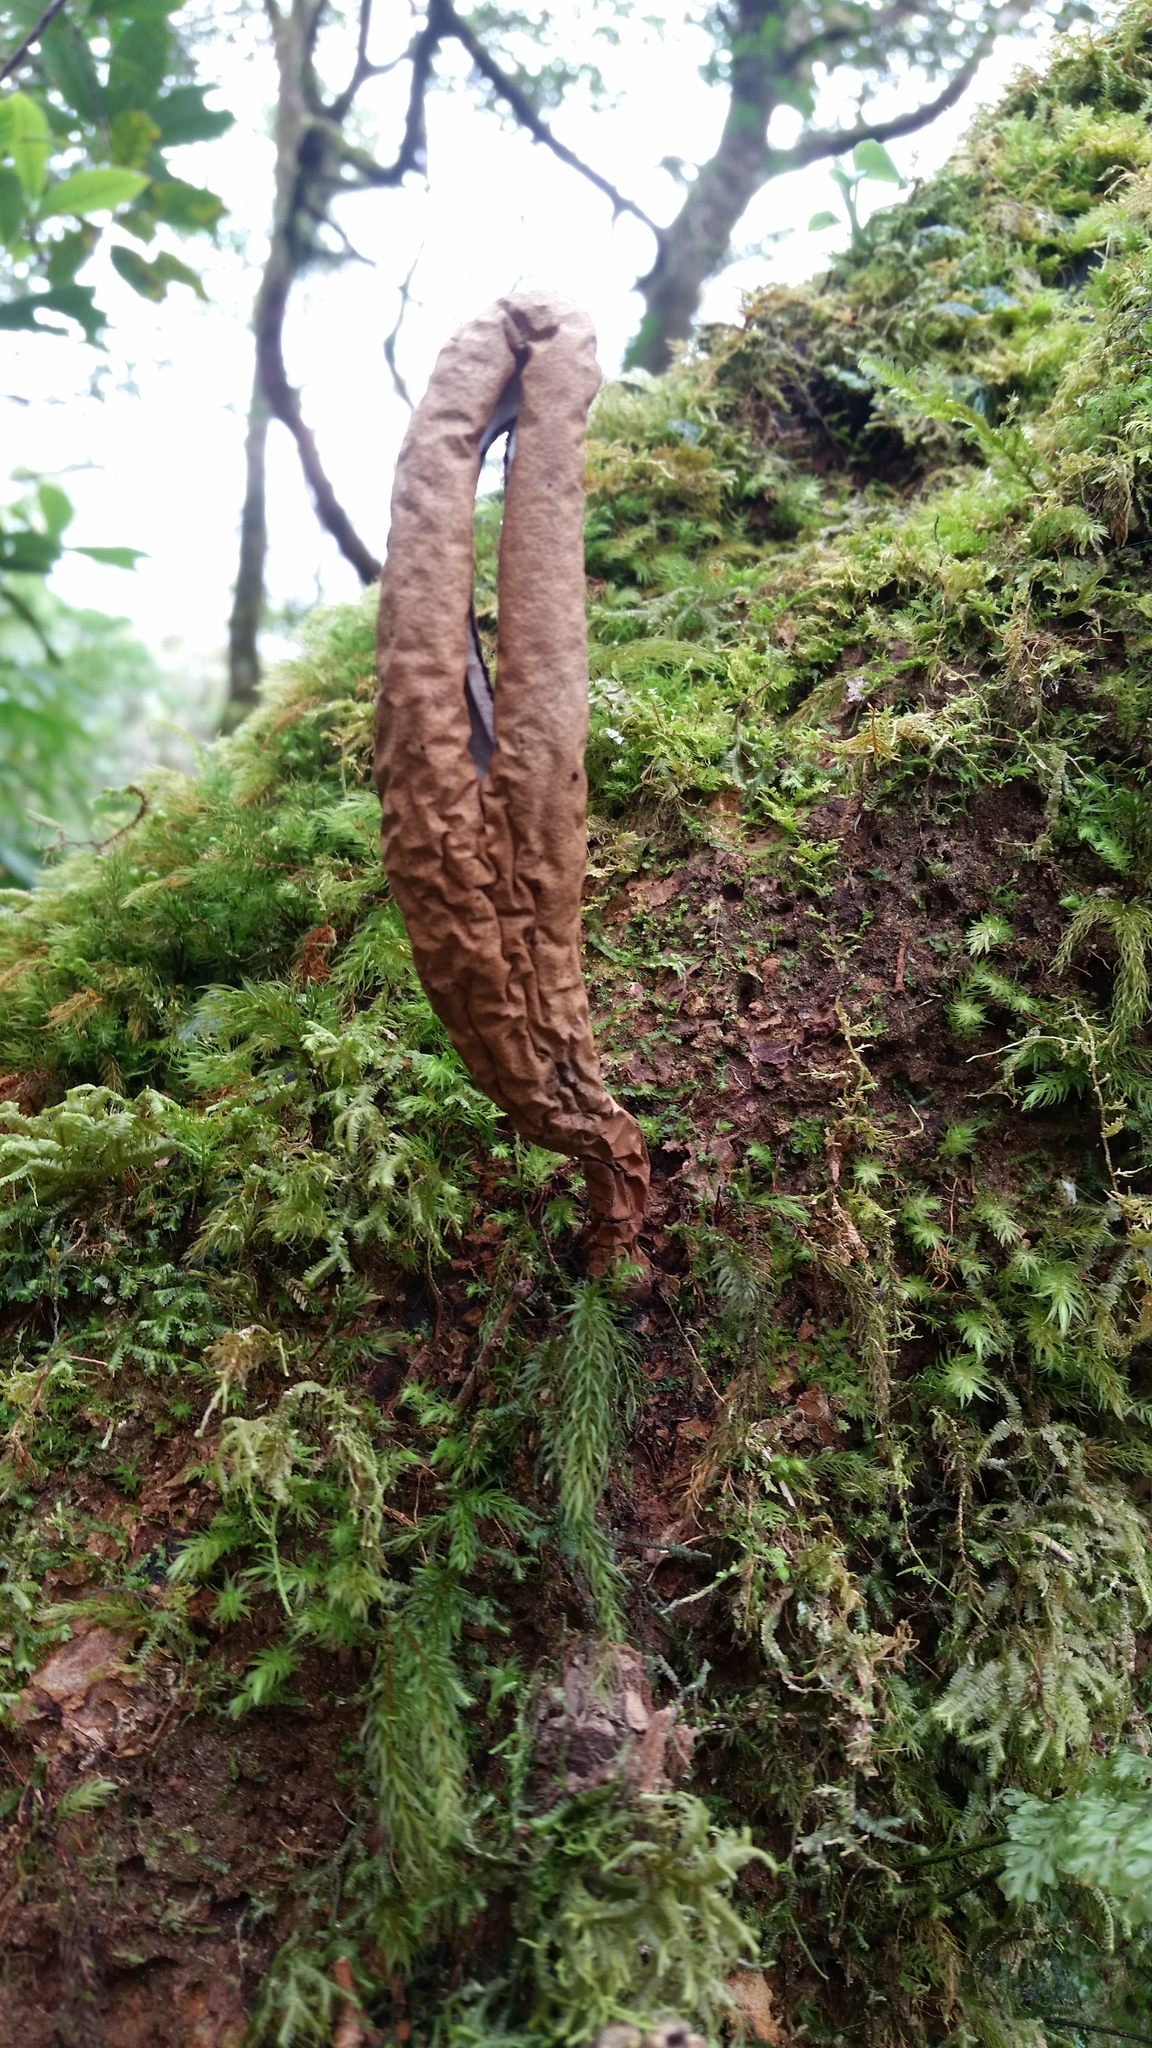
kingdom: Fungi
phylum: Ascomycota
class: Sordariomycetes
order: Xylariales
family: Xylariaceae
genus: Xylaria
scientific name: Xylaria telfairii
